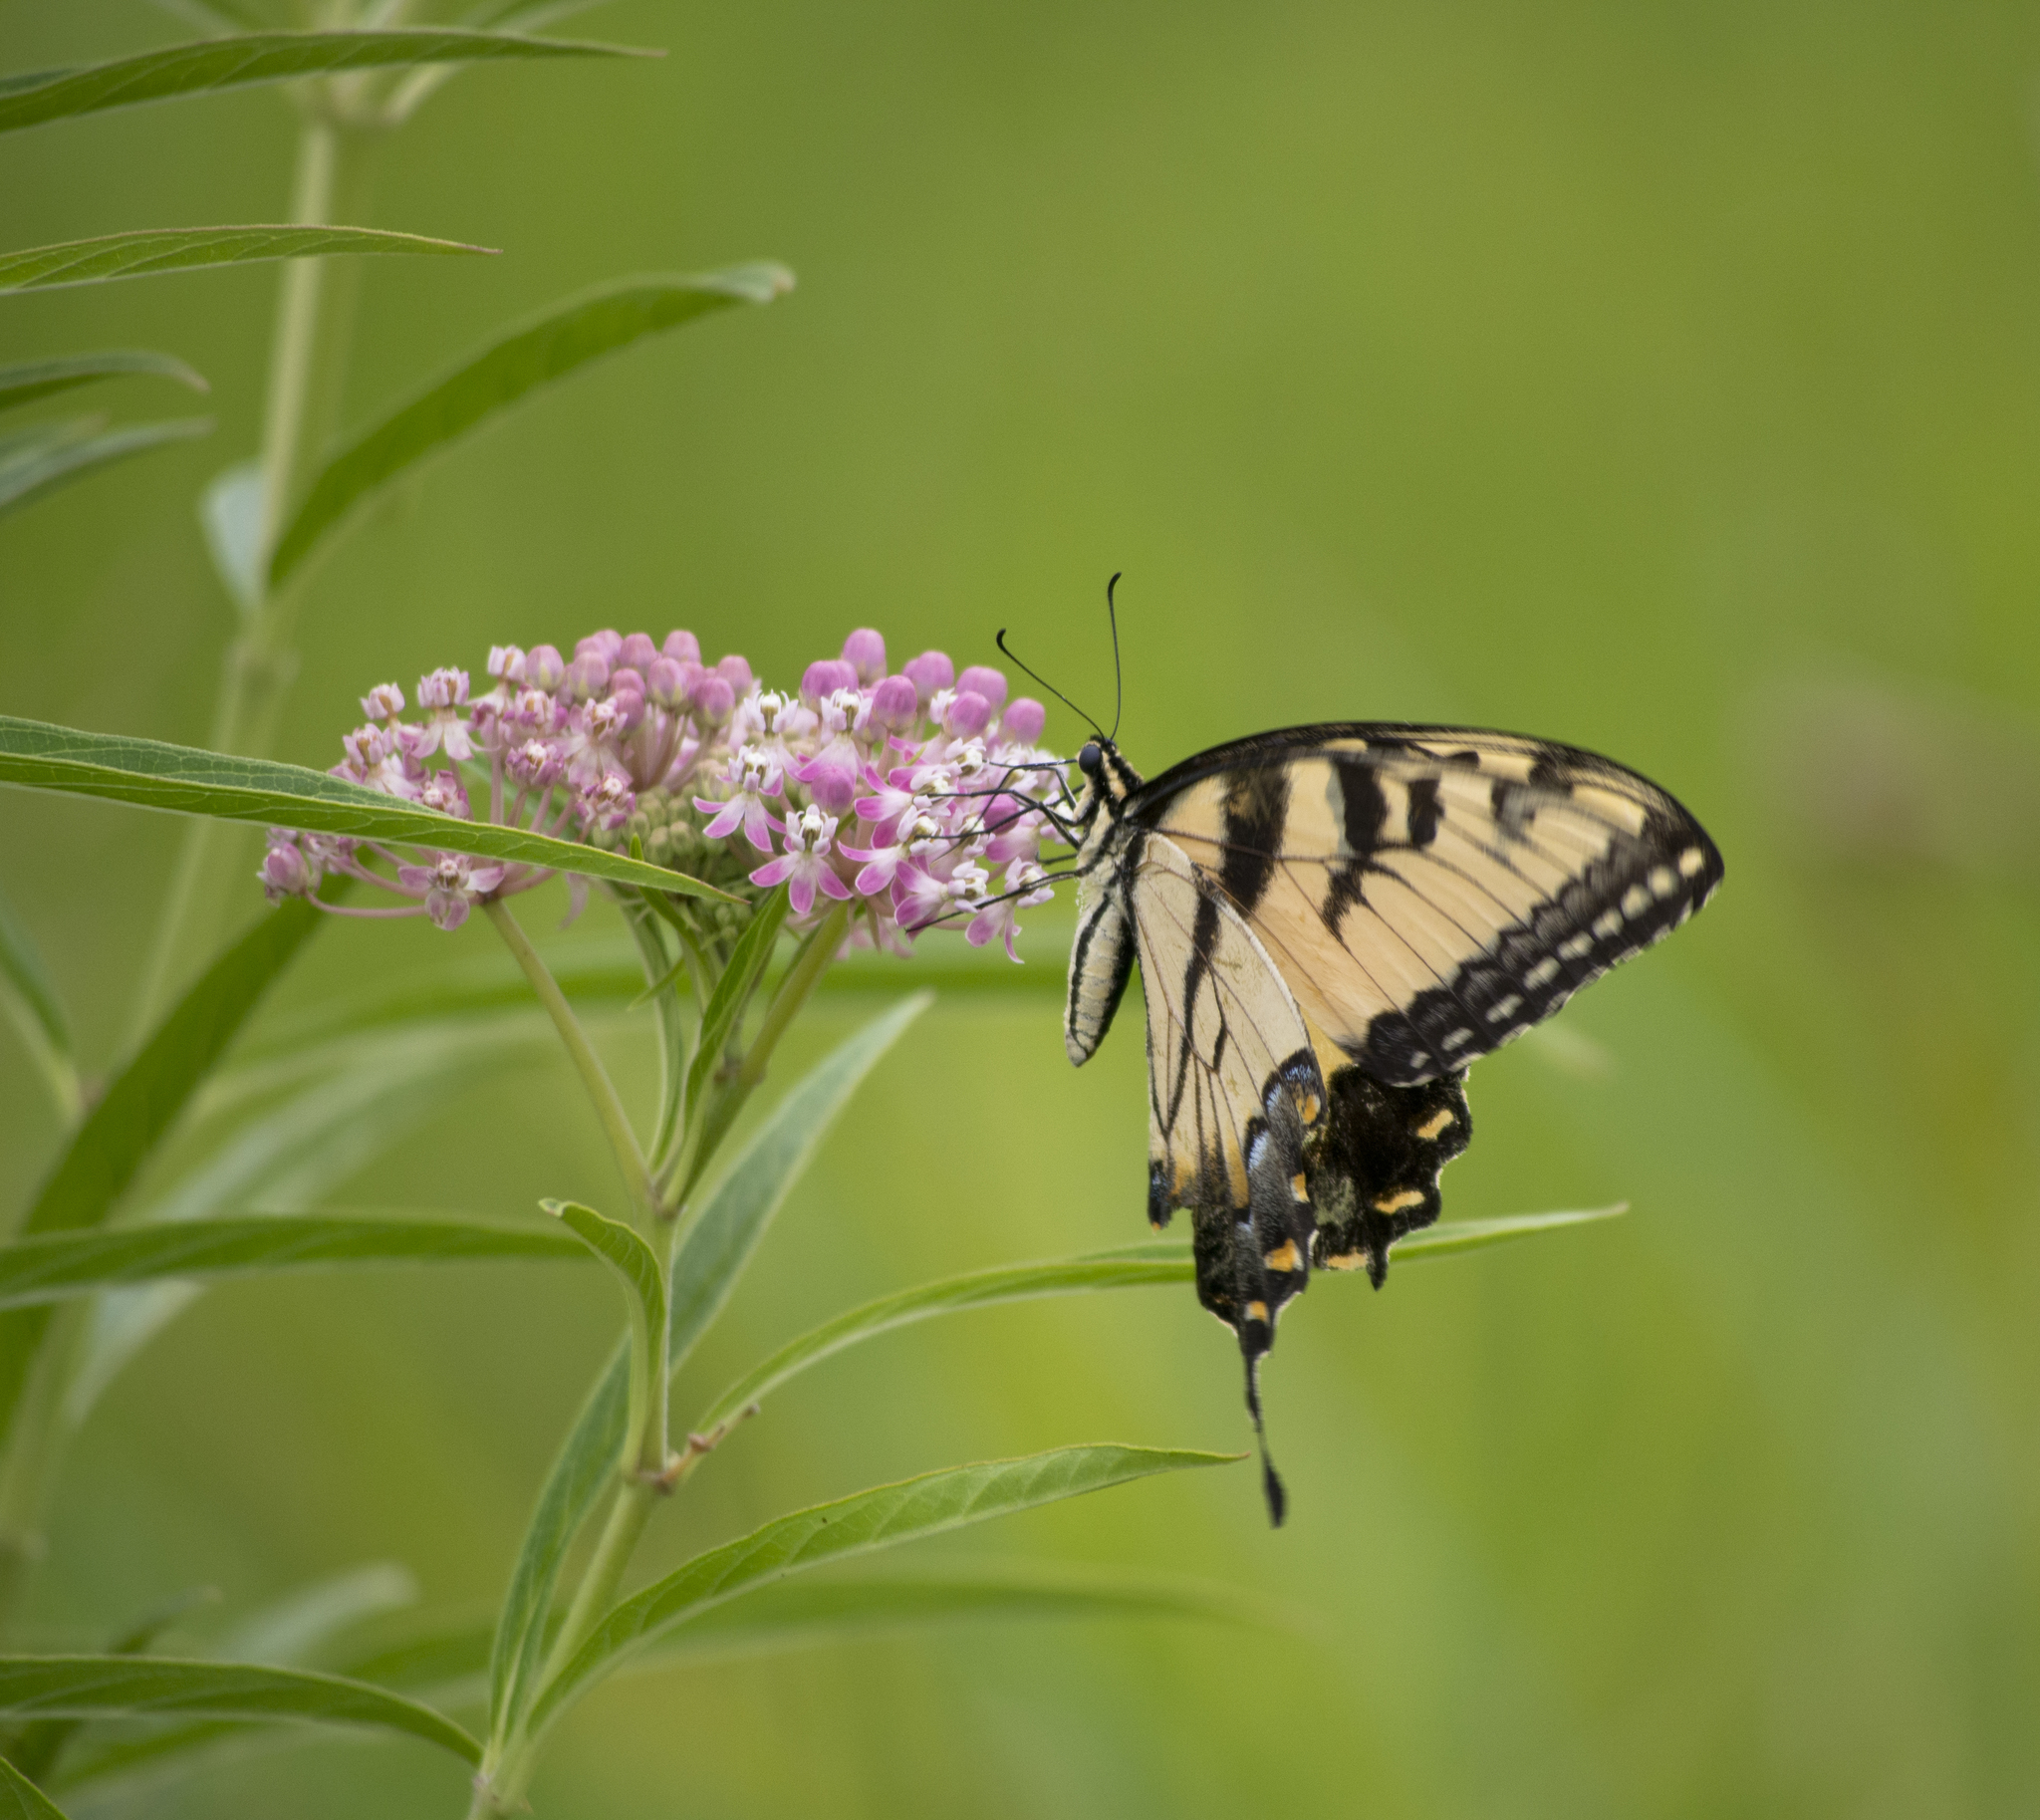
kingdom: Animalia
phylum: Arthropoda
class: Insecta
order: Lepidoptera
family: Papilionidae
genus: Papilio
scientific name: Papilio glaucus
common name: Tiger swallowtail
